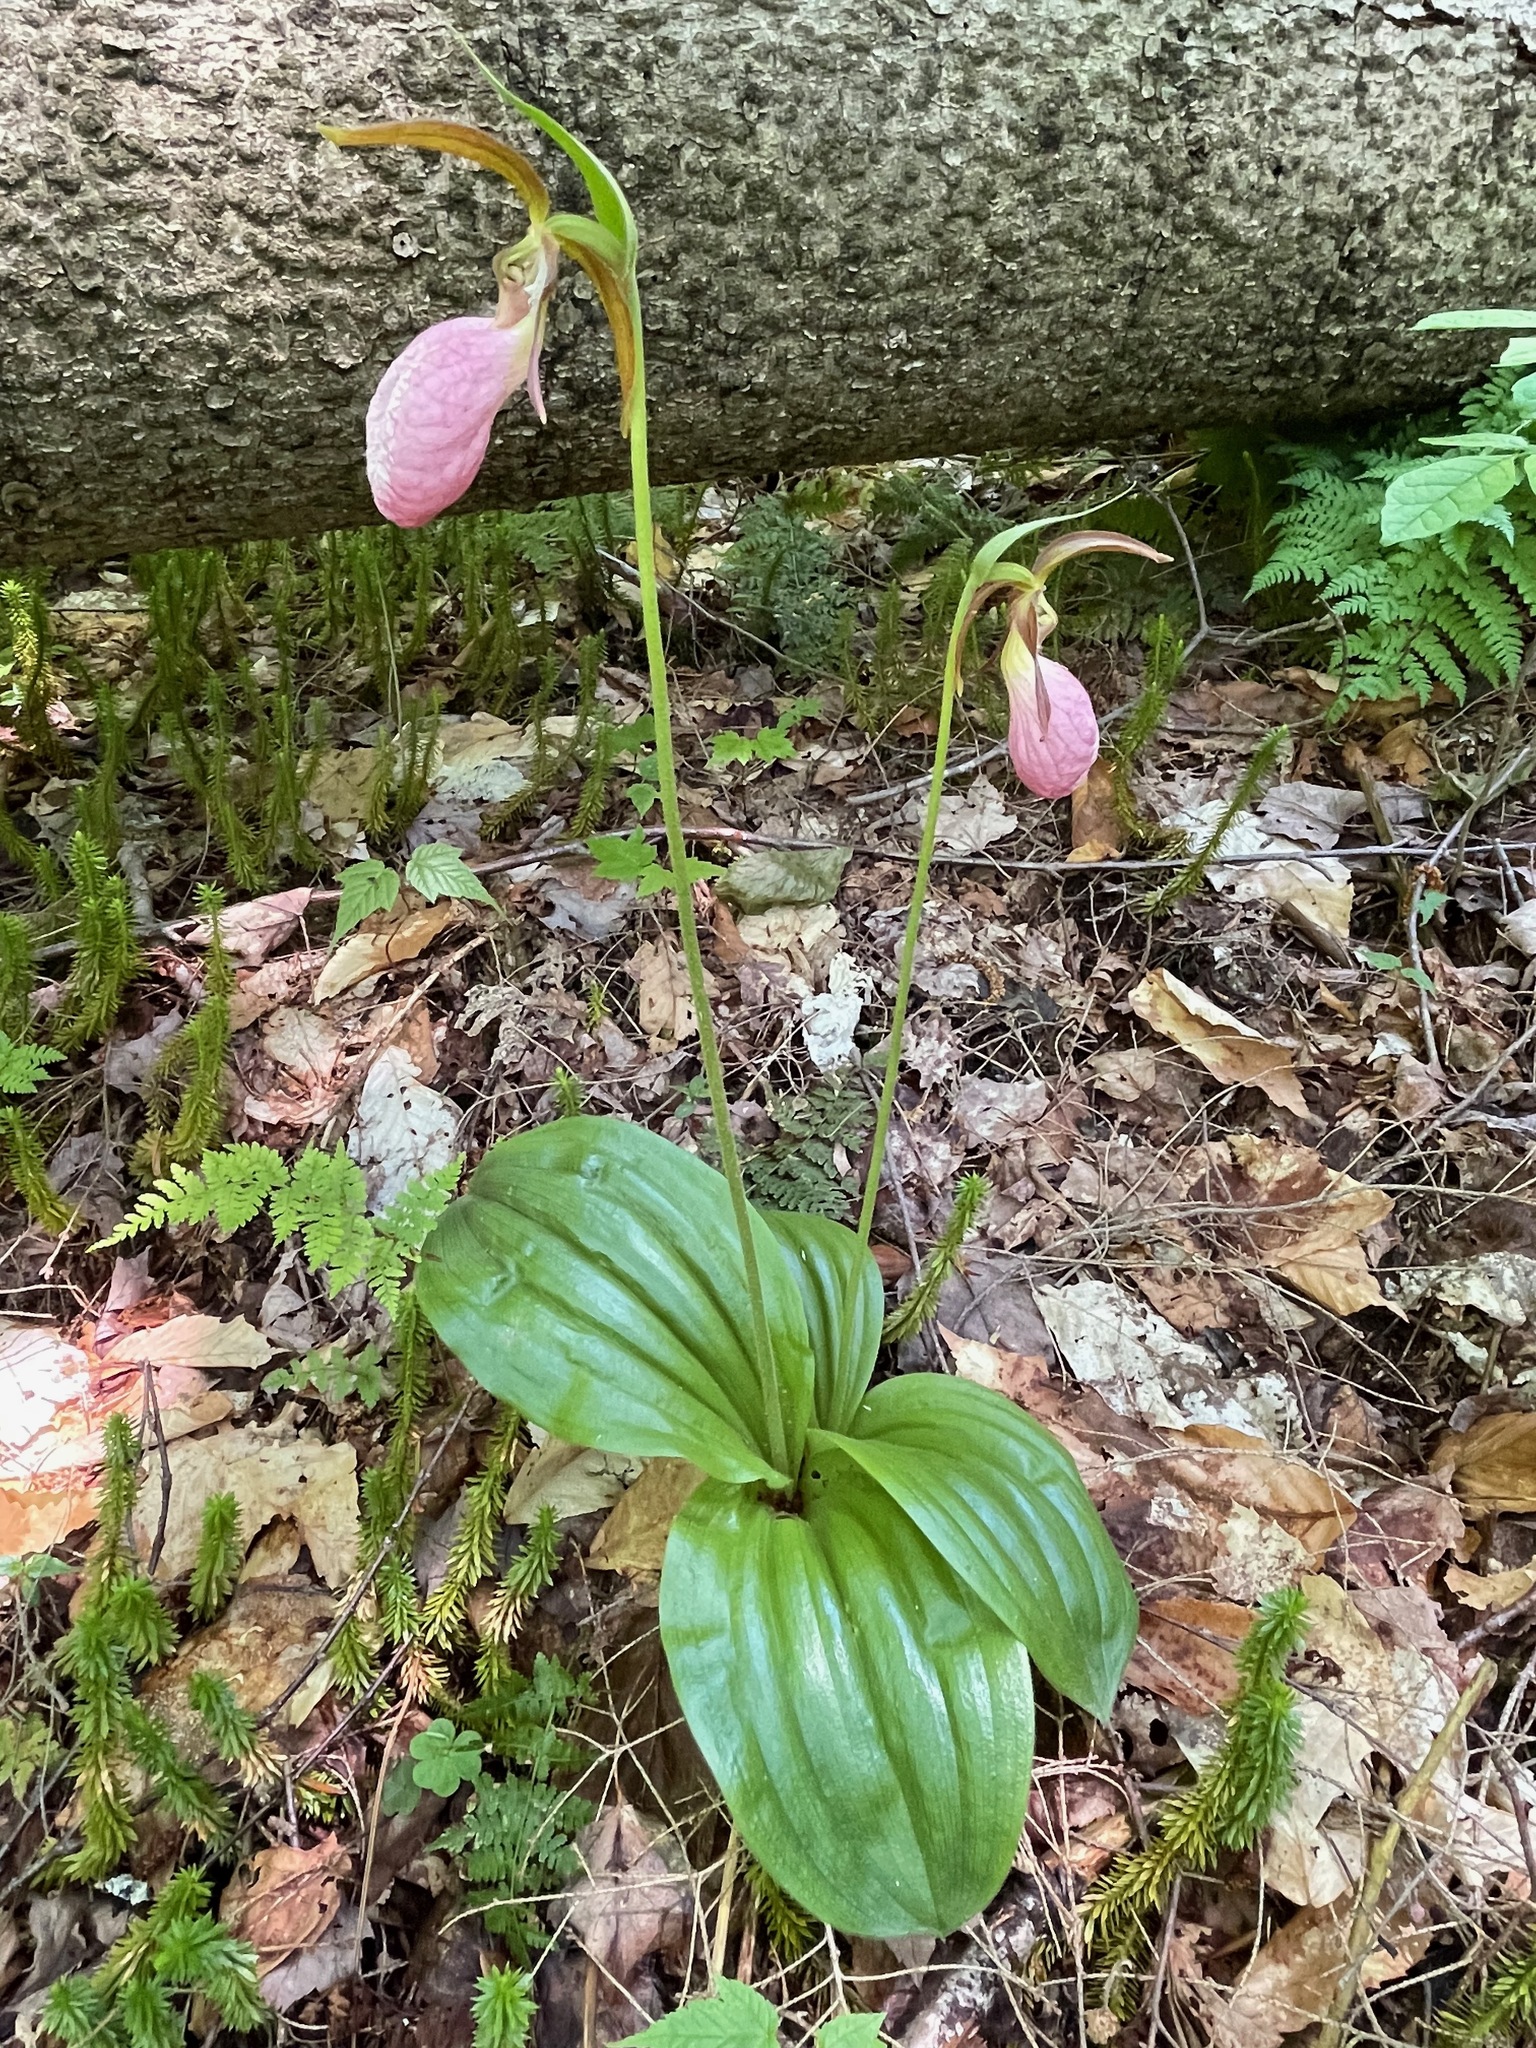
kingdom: Plantae
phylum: Tracheophyta
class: Liliopsida
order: Asparagales
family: Orchidaceae
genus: Cypripedium
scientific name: Cypripedium acaule
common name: Pink lady's-slipper
